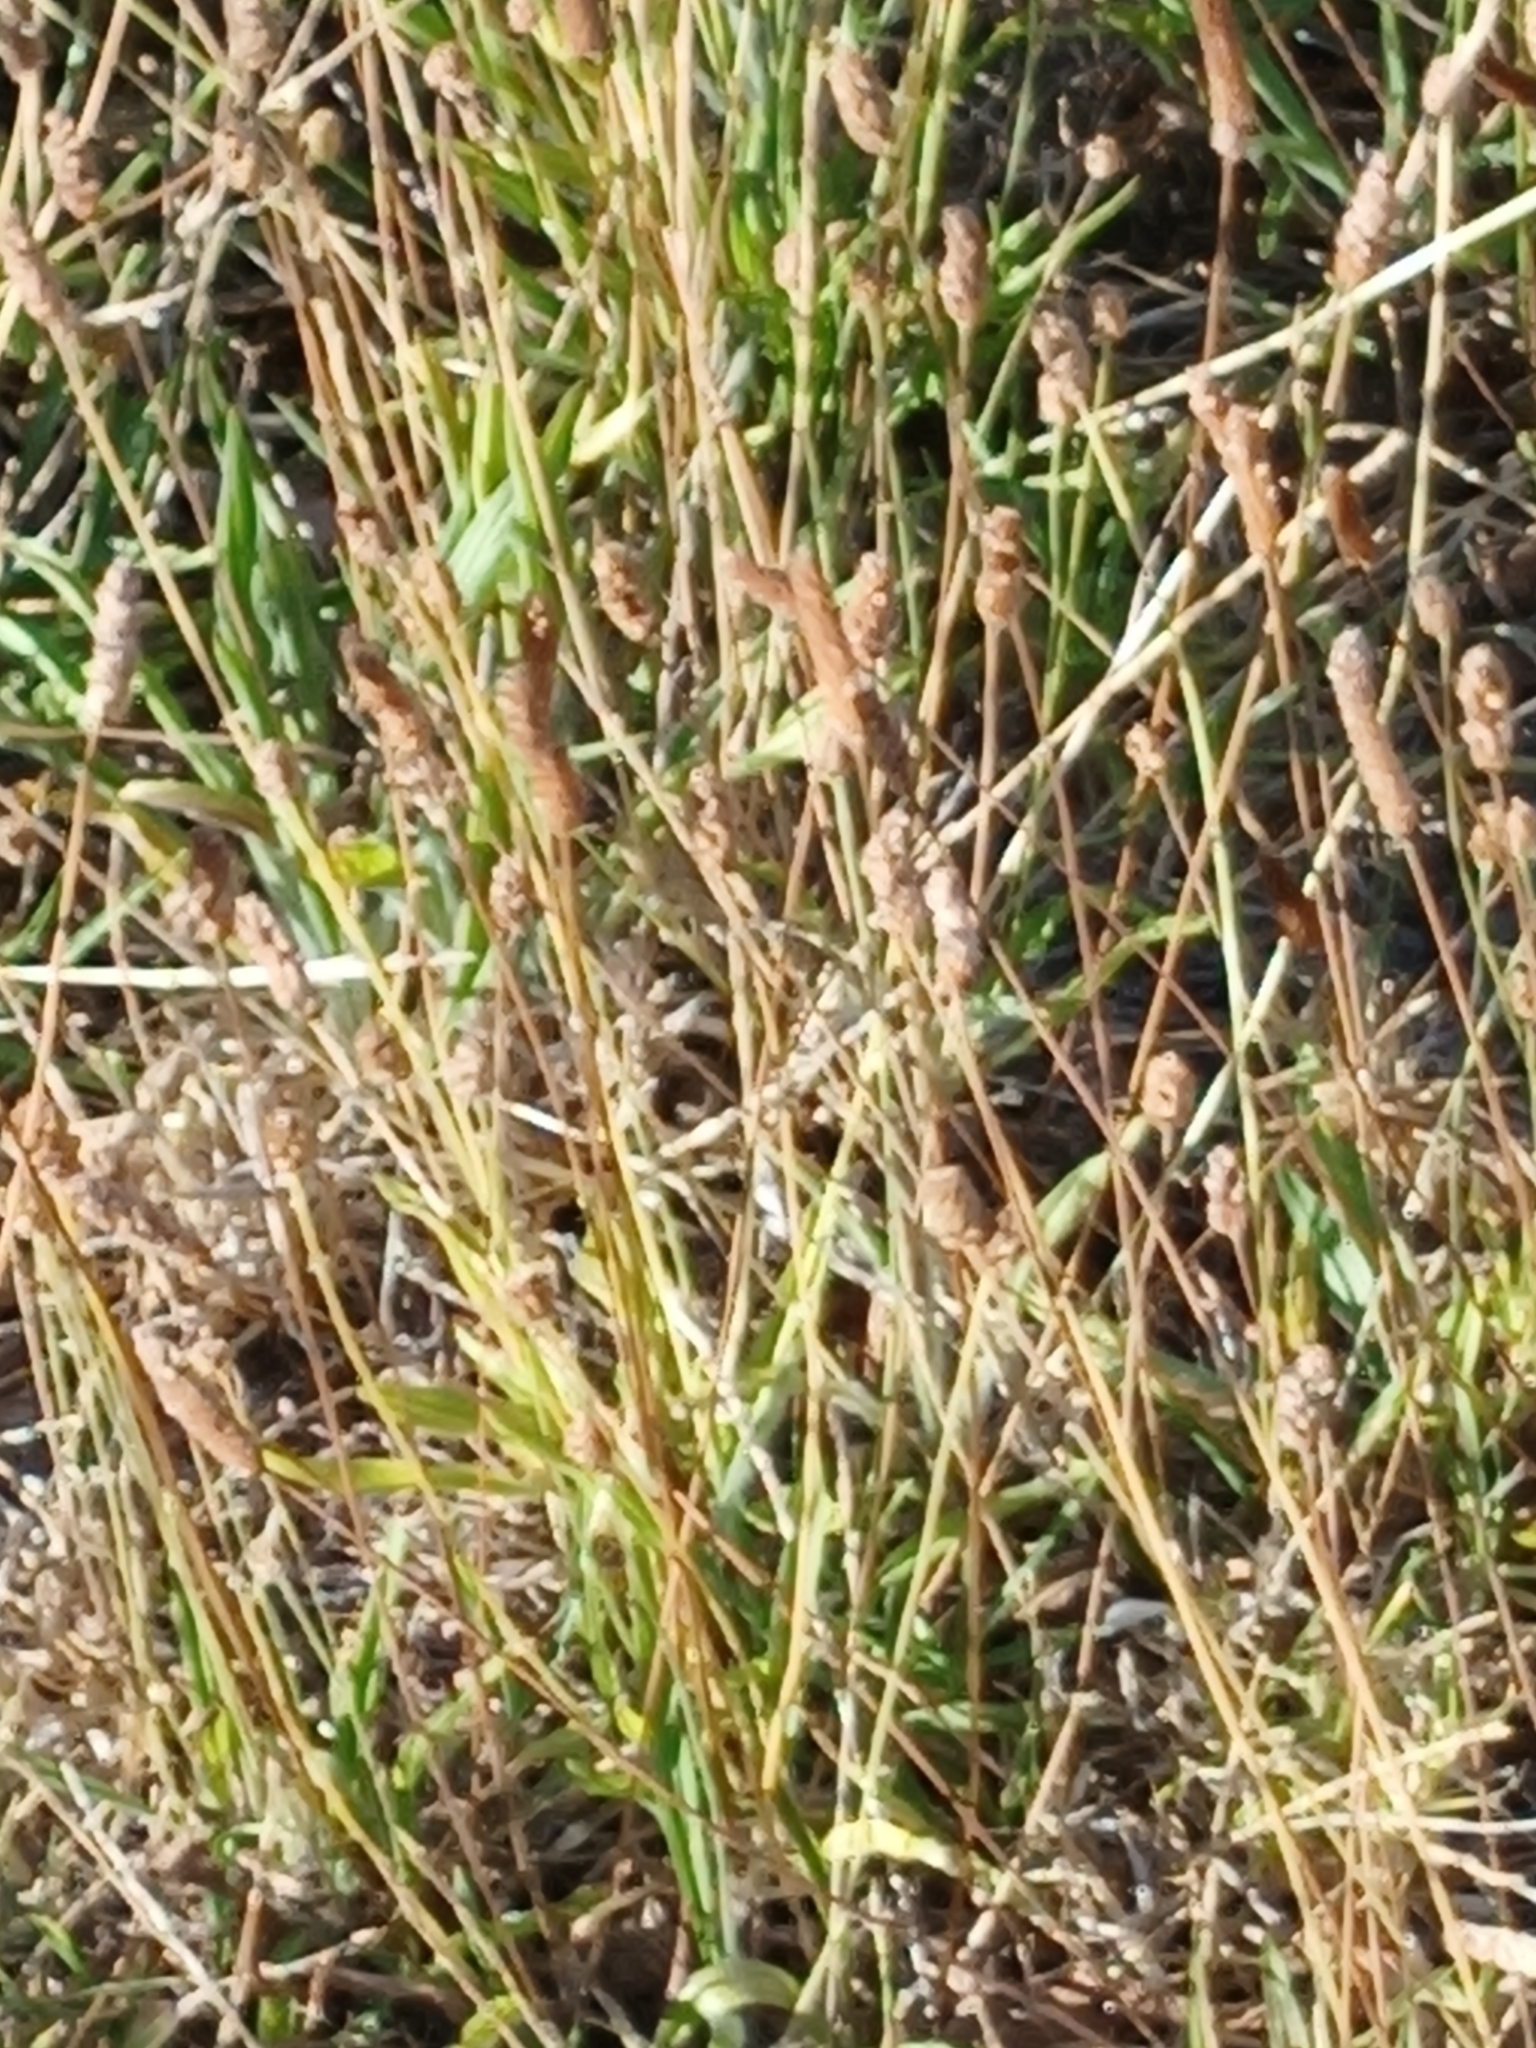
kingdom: Plantae
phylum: Tracheophyta
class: Magnoliopsida
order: Lamiales
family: Plantaginaceae
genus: Plantago
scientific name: Plantago lanceolata
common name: Ribwort plantain
